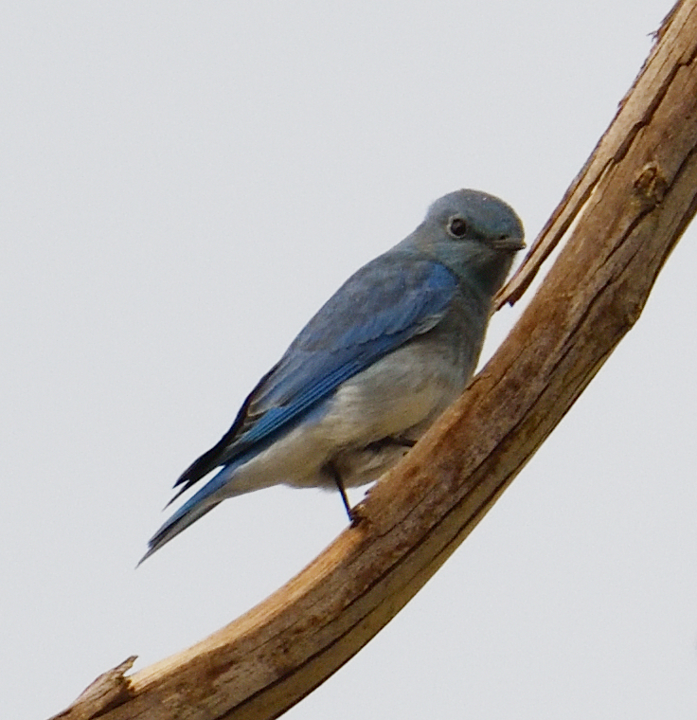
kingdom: Animalia
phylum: Chordata
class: Aves
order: Passeriformes
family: Turdidae
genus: Sialia
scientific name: Sialia currucoides
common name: Mountain bluebird
